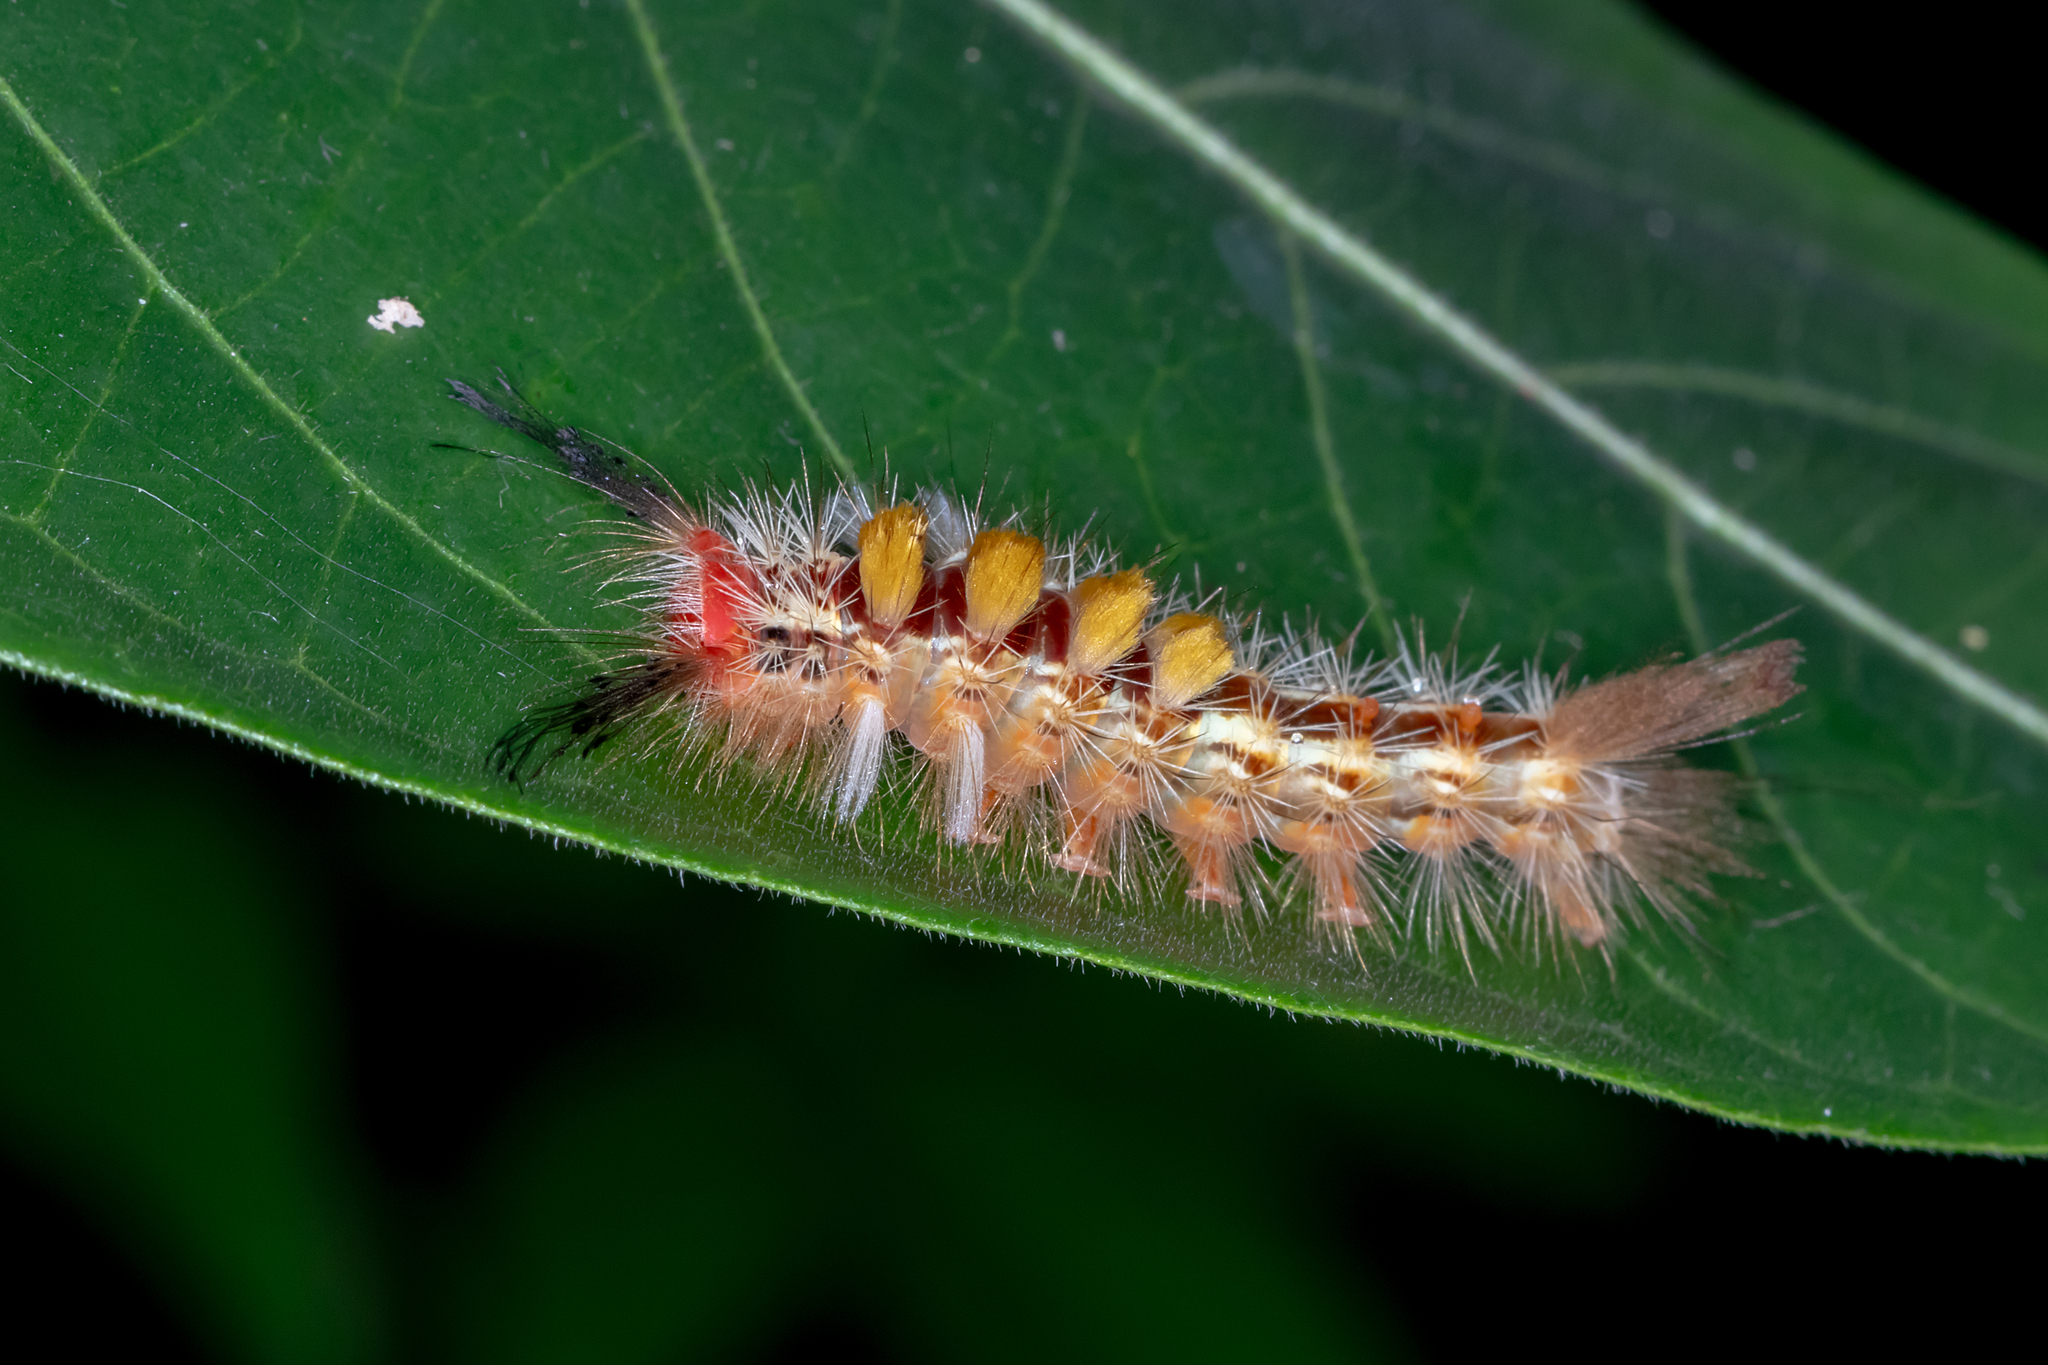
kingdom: Animalia
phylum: Arthropoda
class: Insecta
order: Lepidoptera
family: Erebidae
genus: Orgyia
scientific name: Orgyia australis
